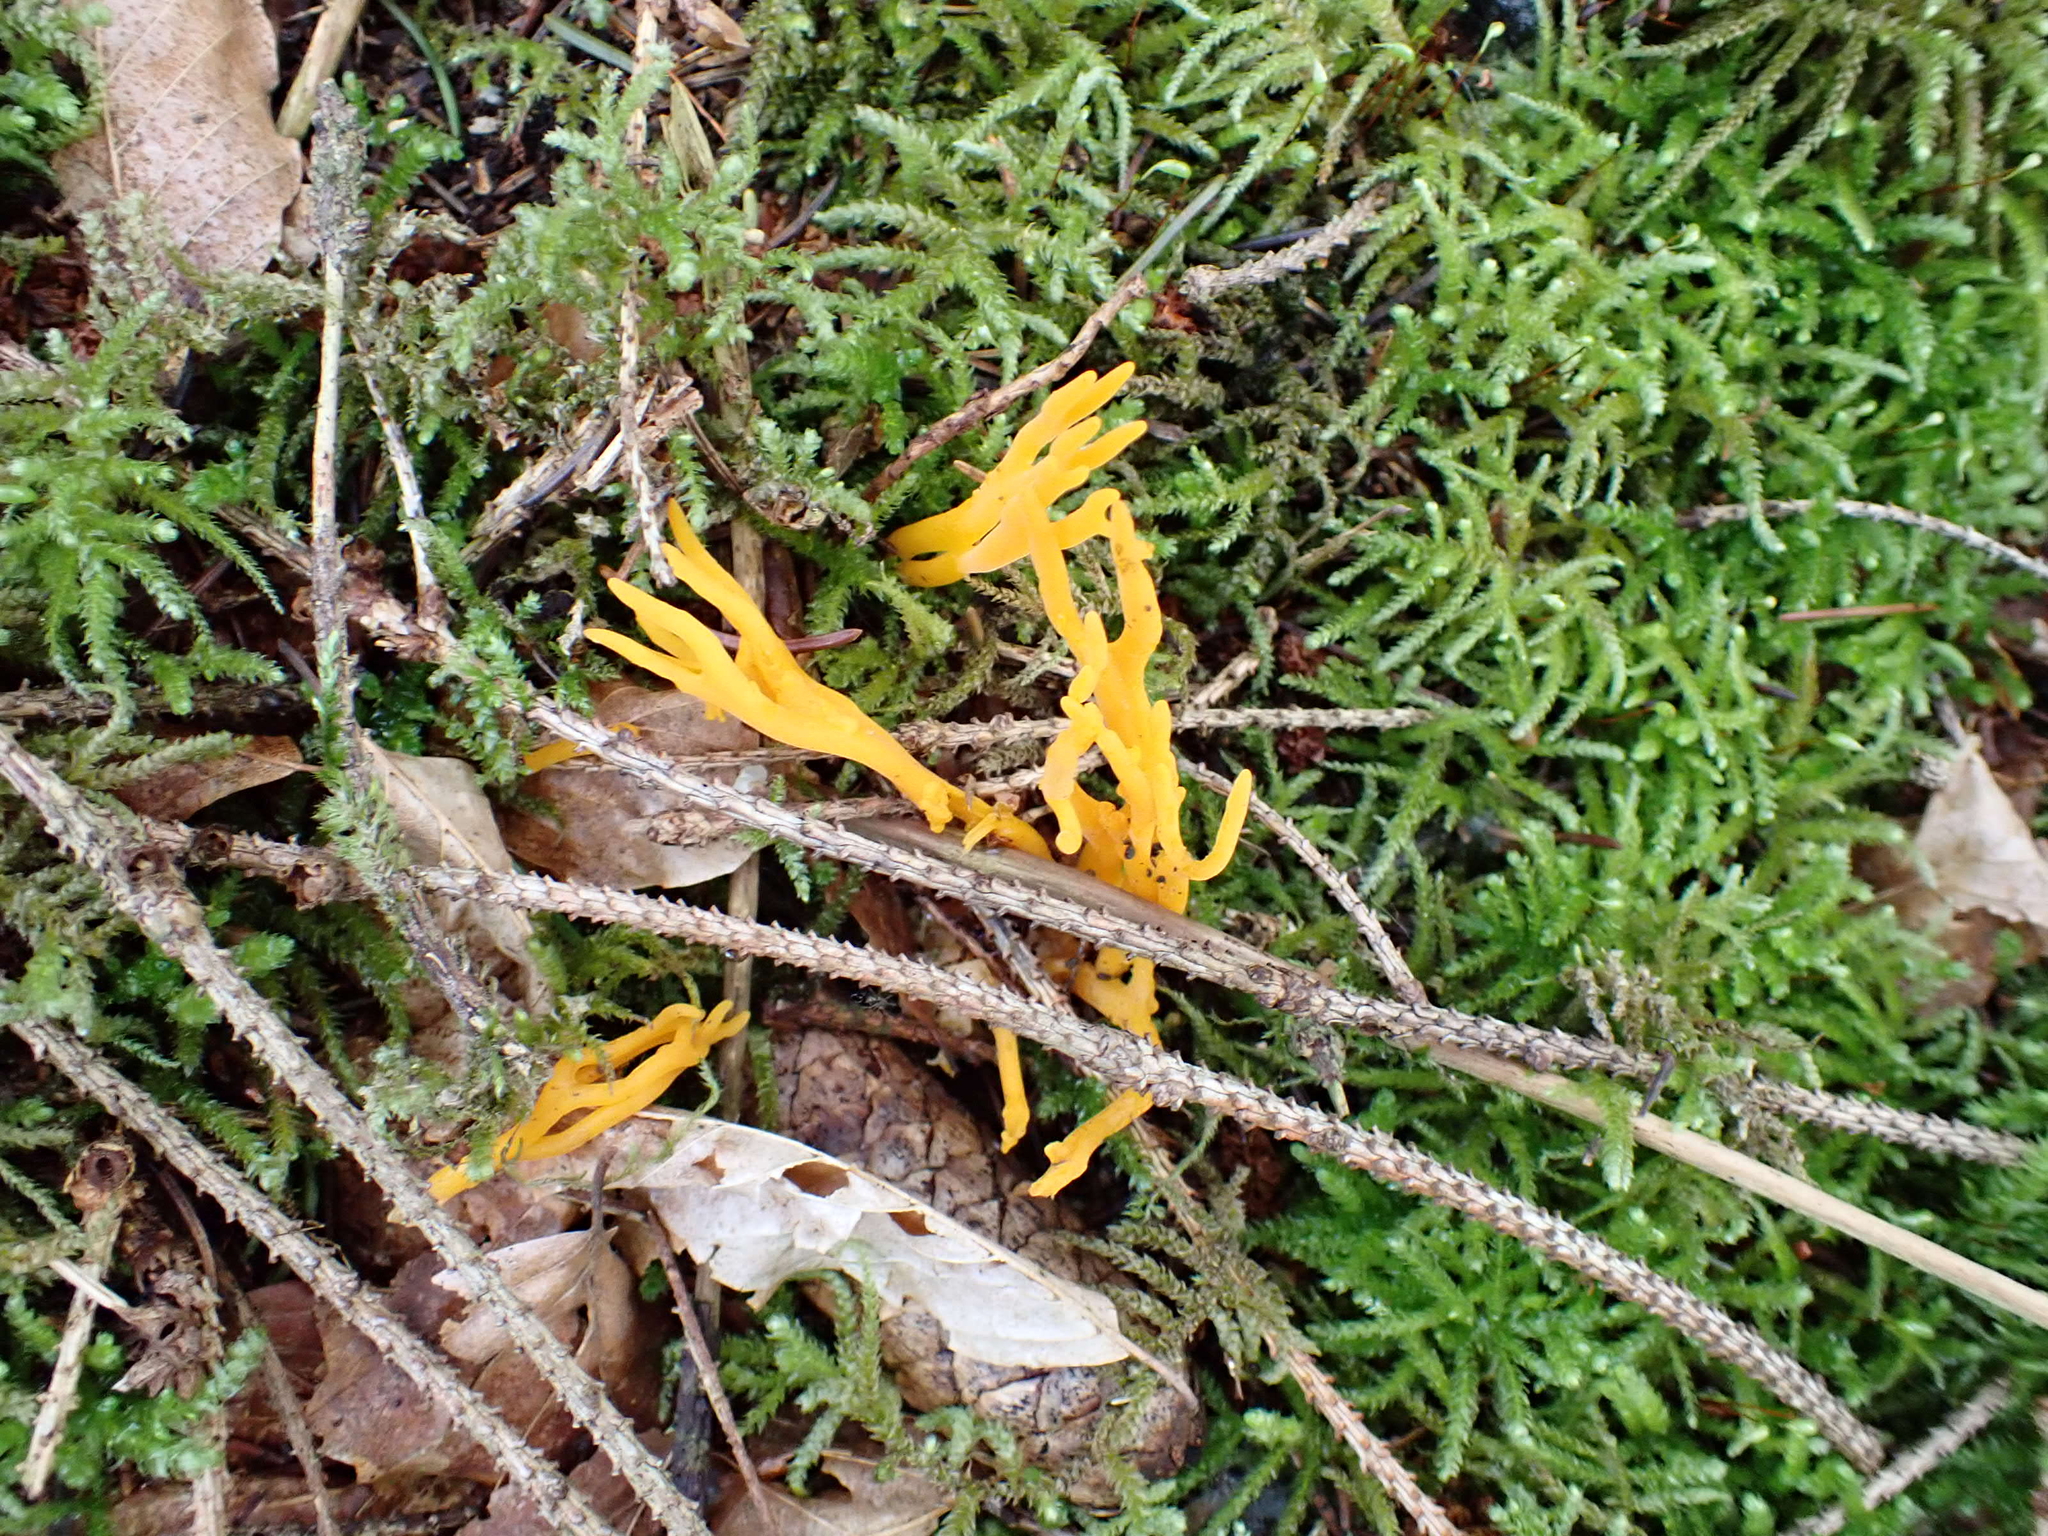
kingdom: Fungi
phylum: Basidiomycota
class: Dacrymycetes
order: Dacrymycetales
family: Dacrymycetaceae
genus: Calocera
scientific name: Calocera viscosa
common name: Yellow stagshorn
